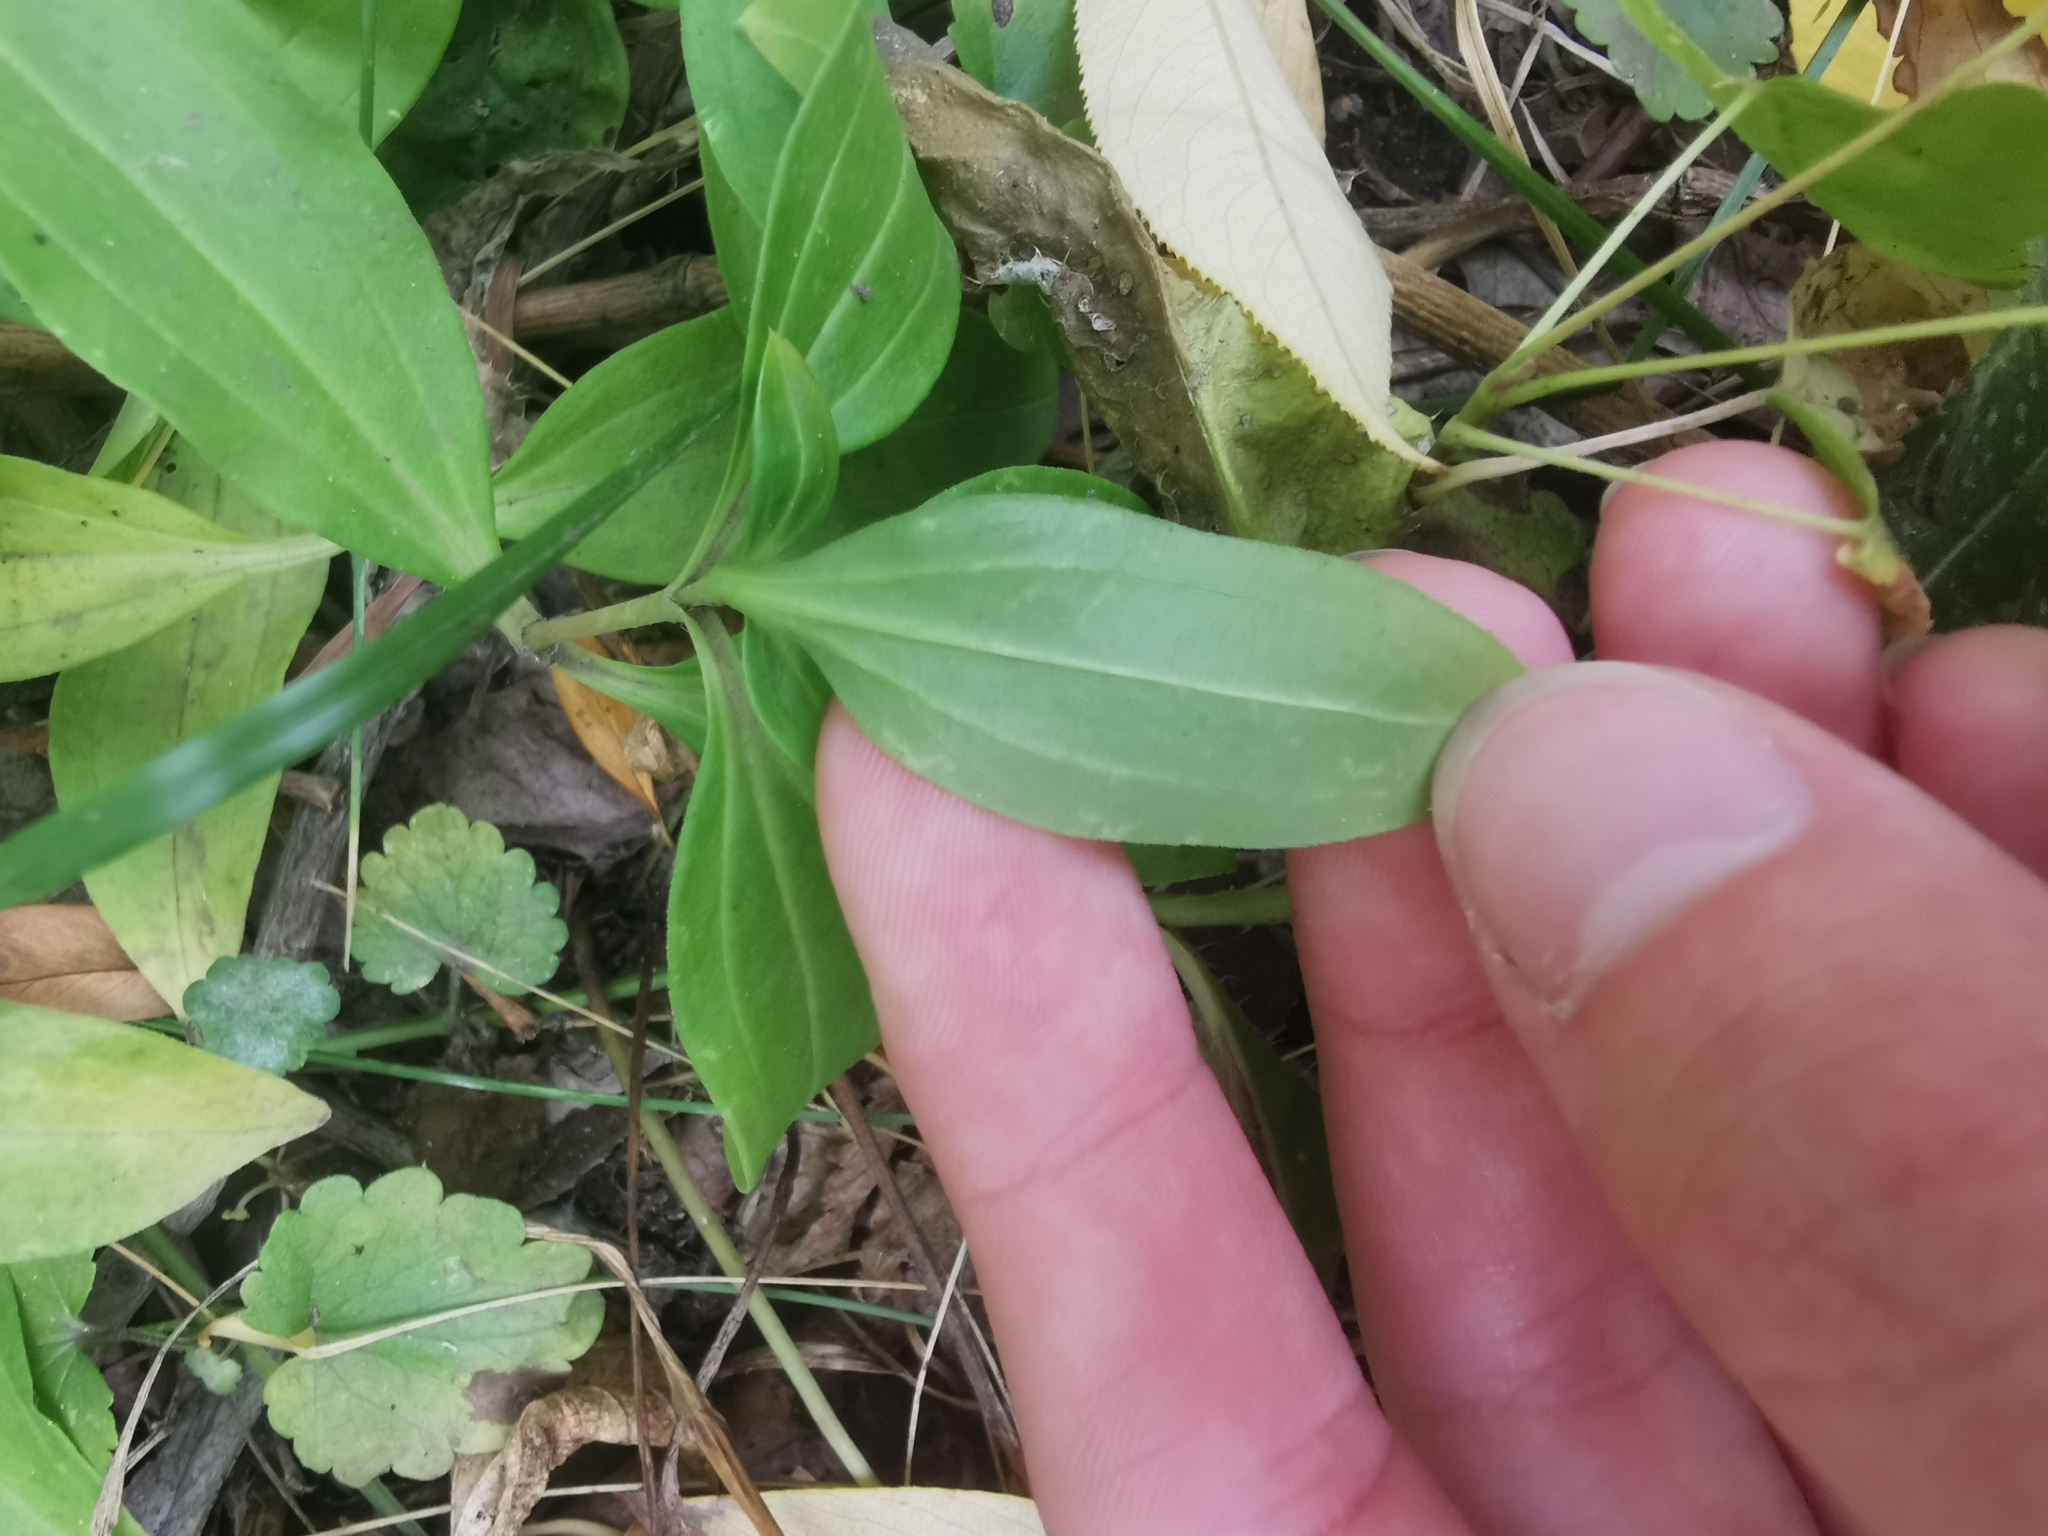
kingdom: Plantae
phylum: Tracheophyta
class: Magnoliopsida
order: Caryophyllales
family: Caryophyllaceae
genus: Saponaria
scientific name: Saponaria officinalis
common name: Soapwort
